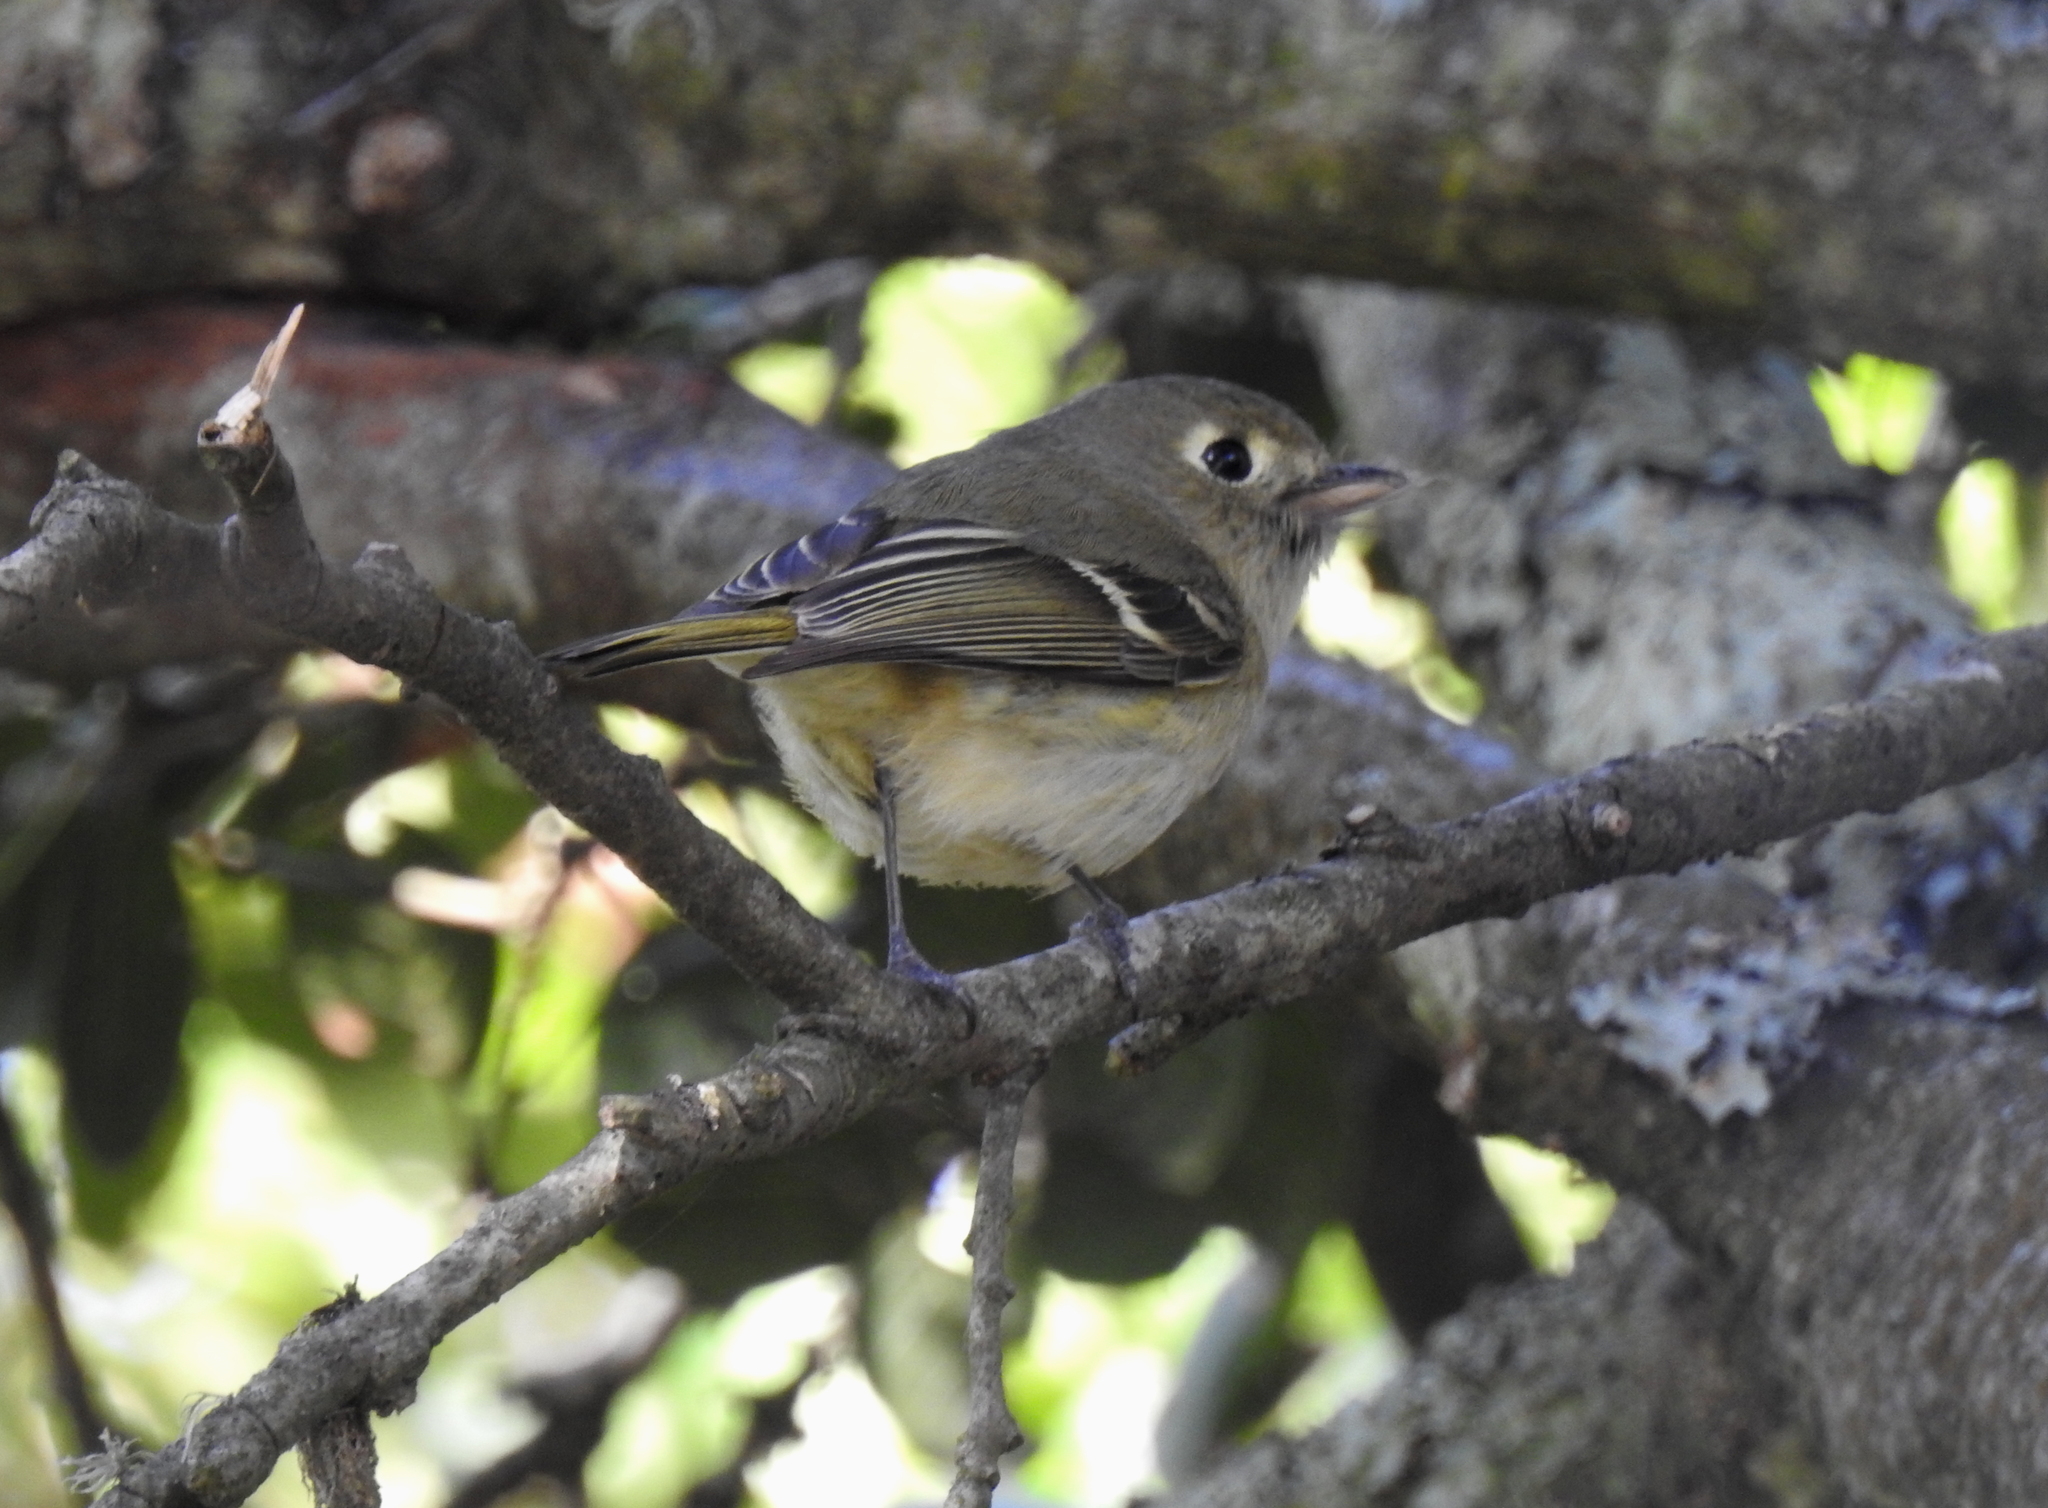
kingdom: Animalia
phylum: Chordata
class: Aves
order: Passeriformes
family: Vireonidae
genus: Vireo
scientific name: Vireo huttoni
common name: Hutton's vireo
